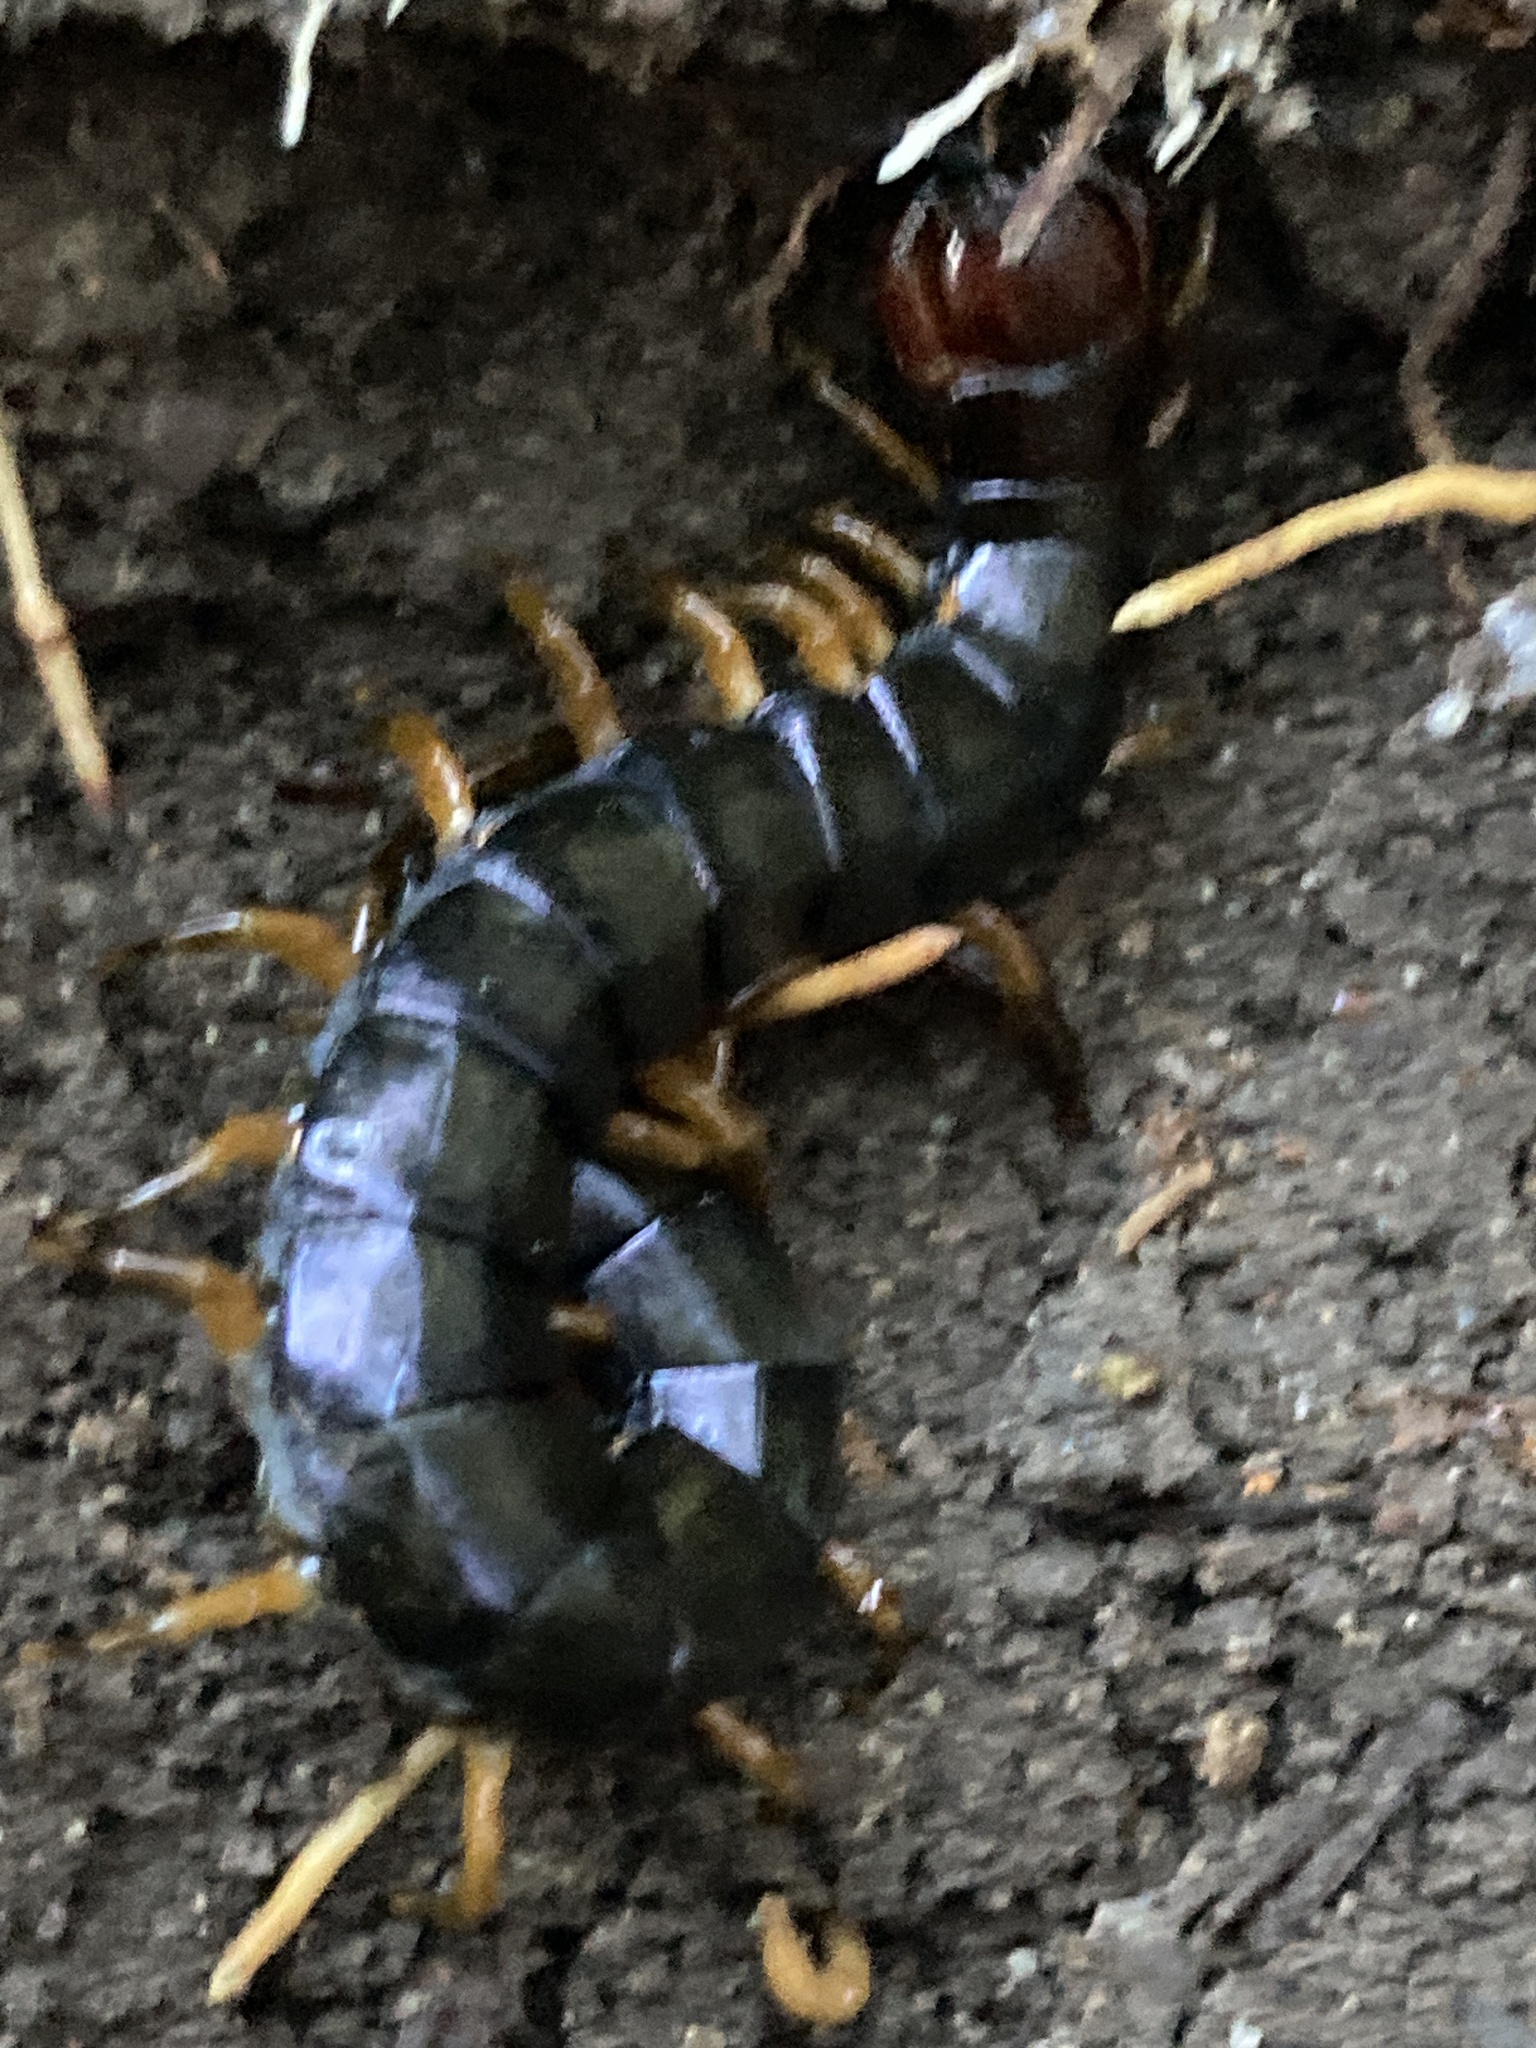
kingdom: Animalia
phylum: Arthropoda
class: Chilopoda
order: Scolopendromorpha
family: Scolopendridae
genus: Cormocephalus
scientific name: Cormocephalus westwoodi
